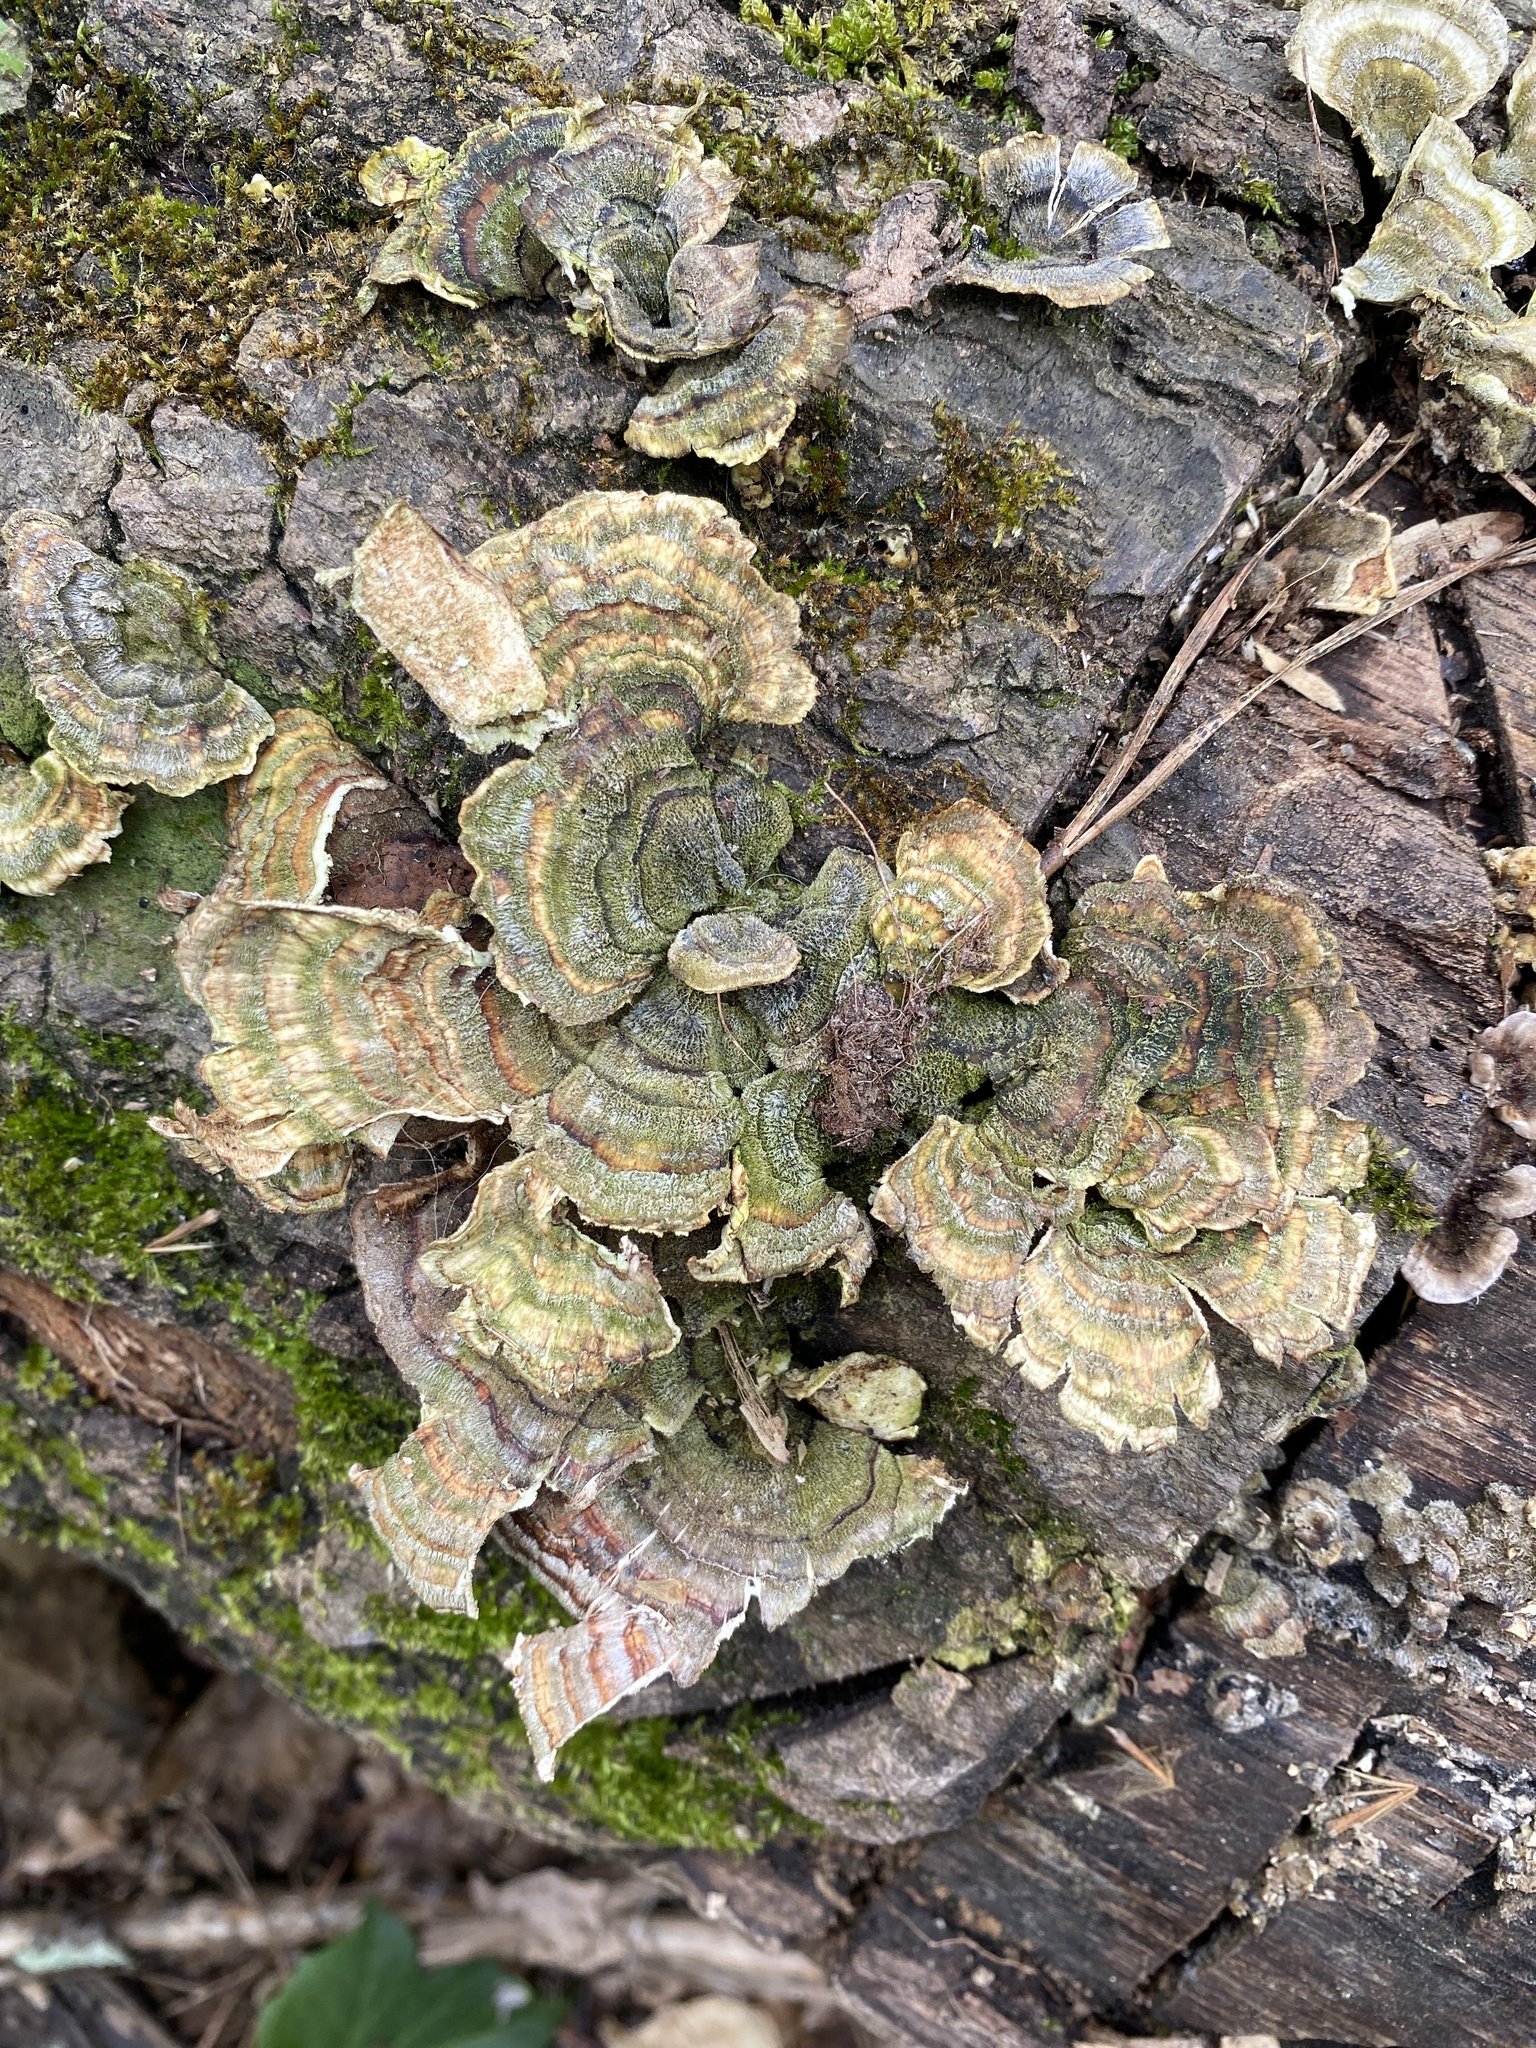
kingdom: Fungi
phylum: Basidiomycota
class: Agaricomycetes
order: Polyporales
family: Polyporaceae
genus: Trametes
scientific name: Trametes versicolor
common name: Turkeytail
